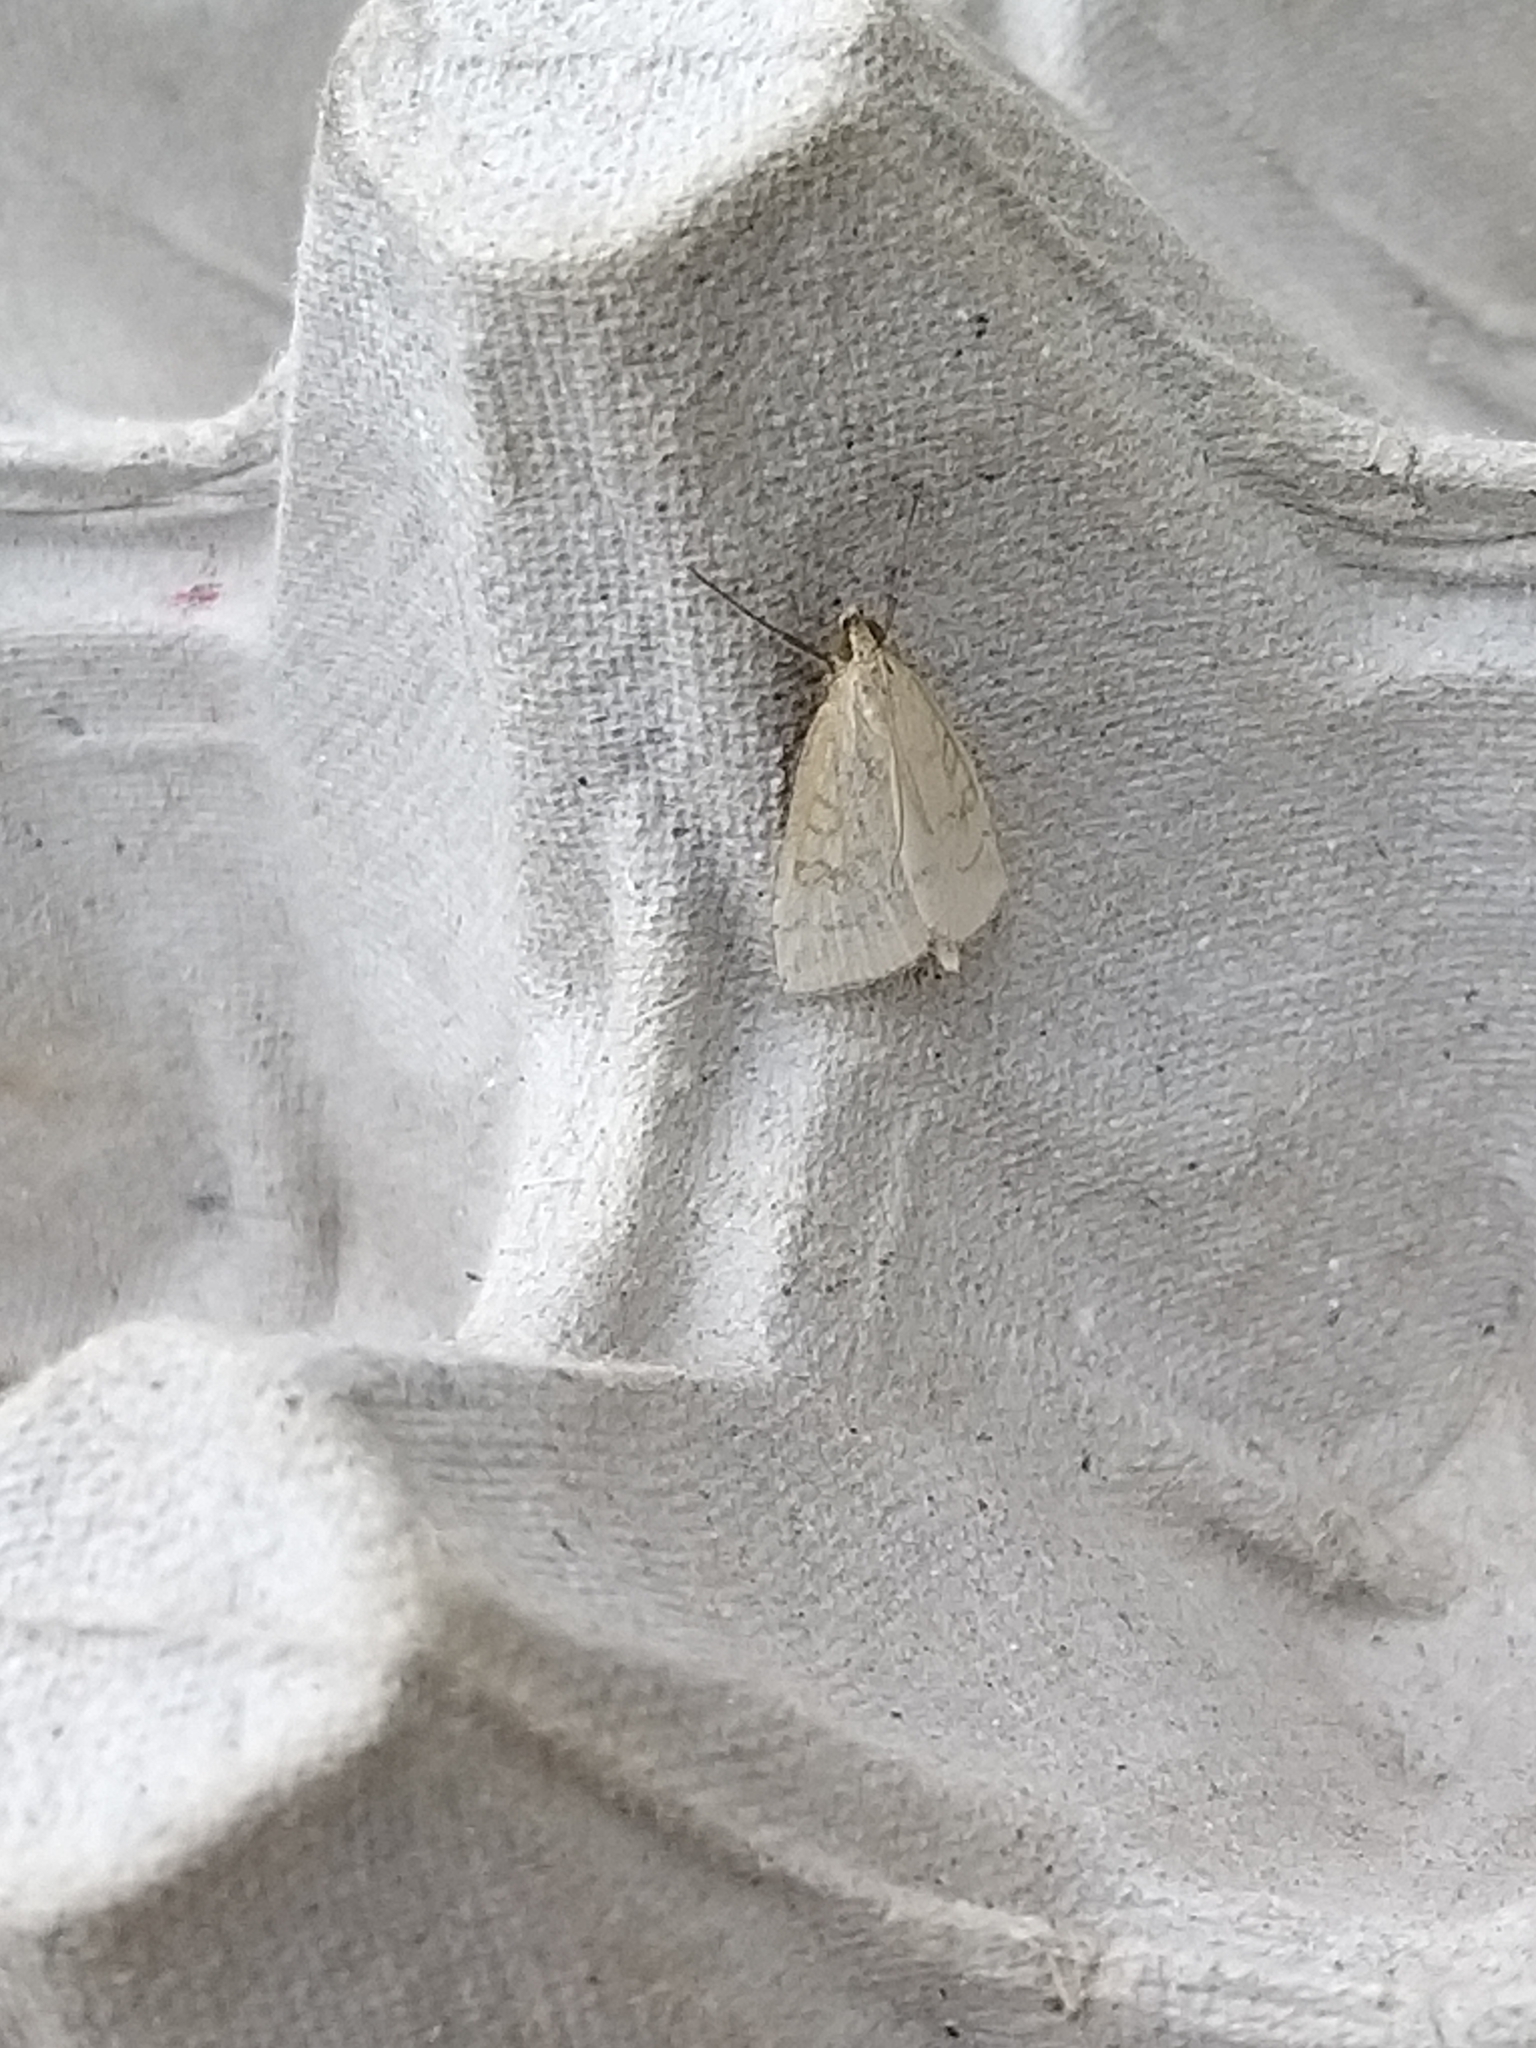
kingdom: Animalia
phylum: Arthropoda
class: Insecta
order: Lepidoptera
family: Crambidae
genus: Udea
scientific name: Udea lutealis
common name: Pale straw pearl
